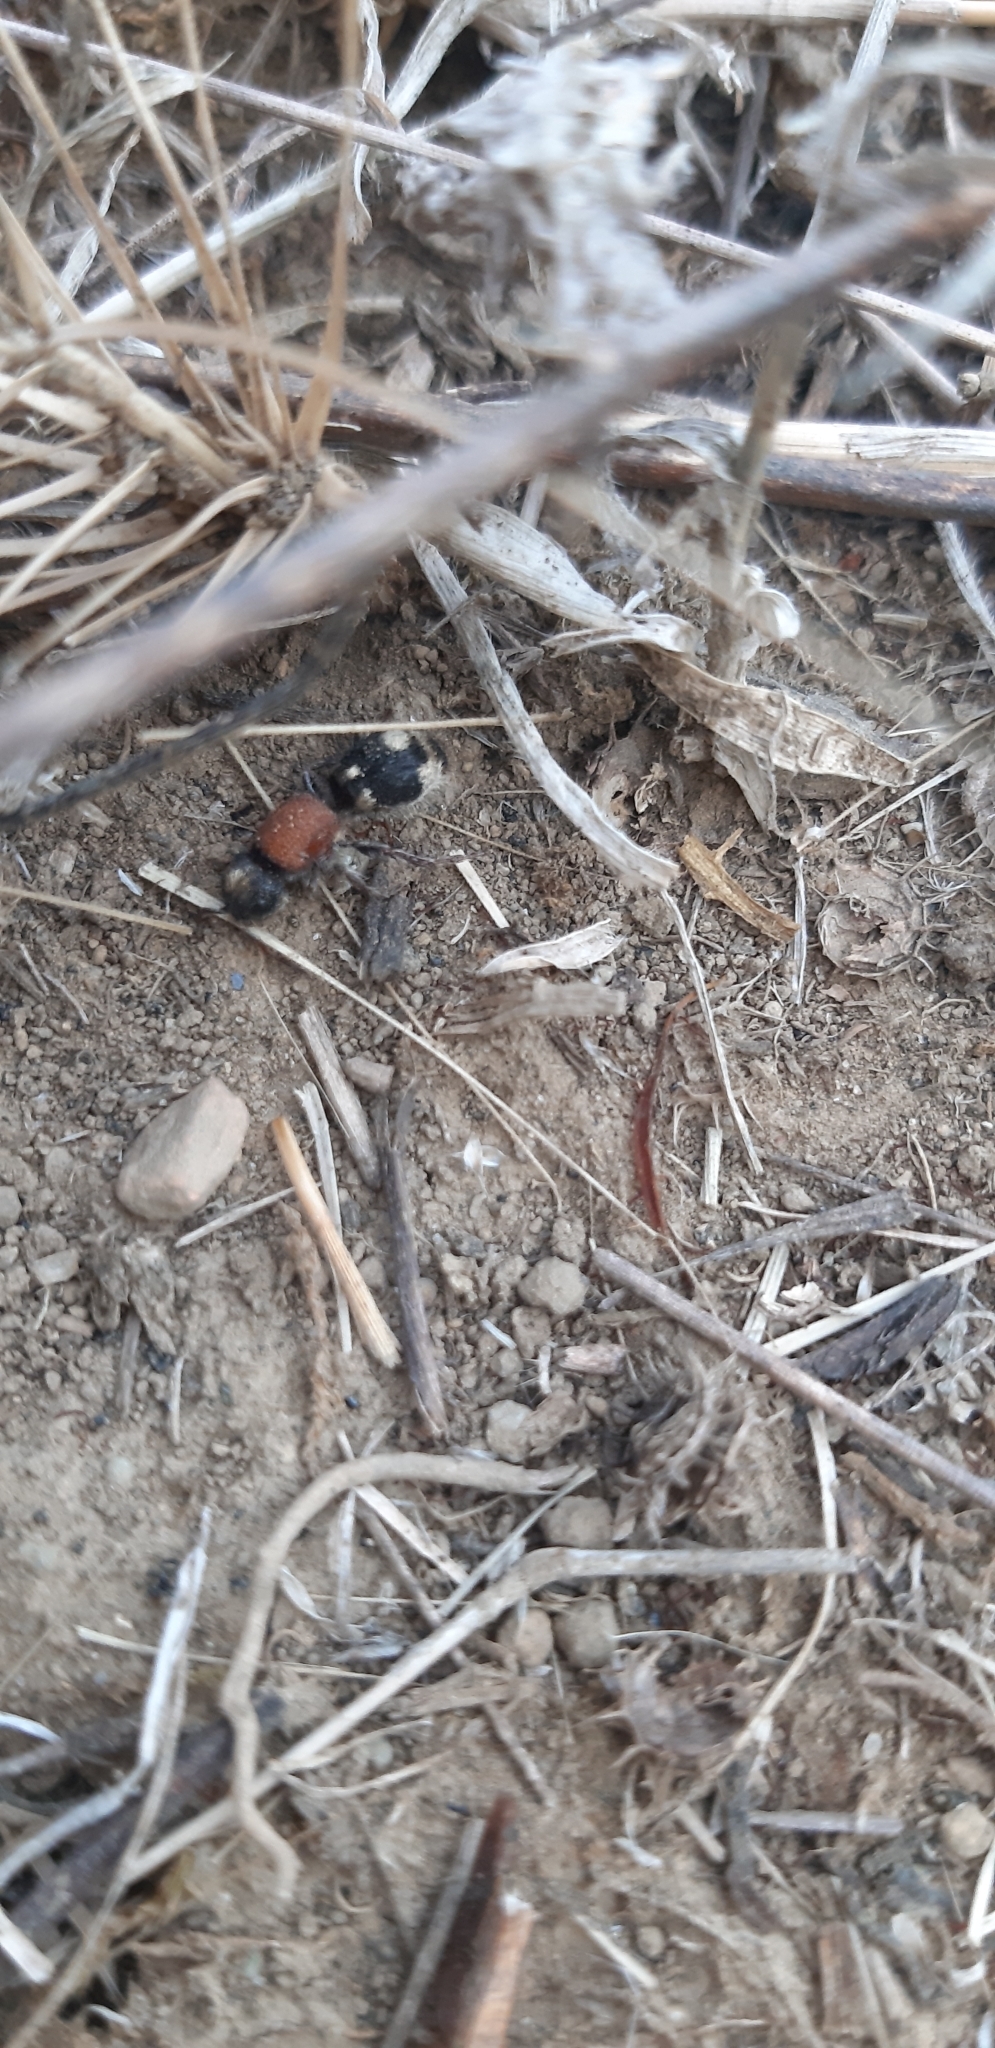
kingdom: Animalia
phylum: Arthropoda
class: Insecta
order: Hymenoptera
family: Mutillidae
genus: Ronisia
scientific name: Ronisia ghilianii
